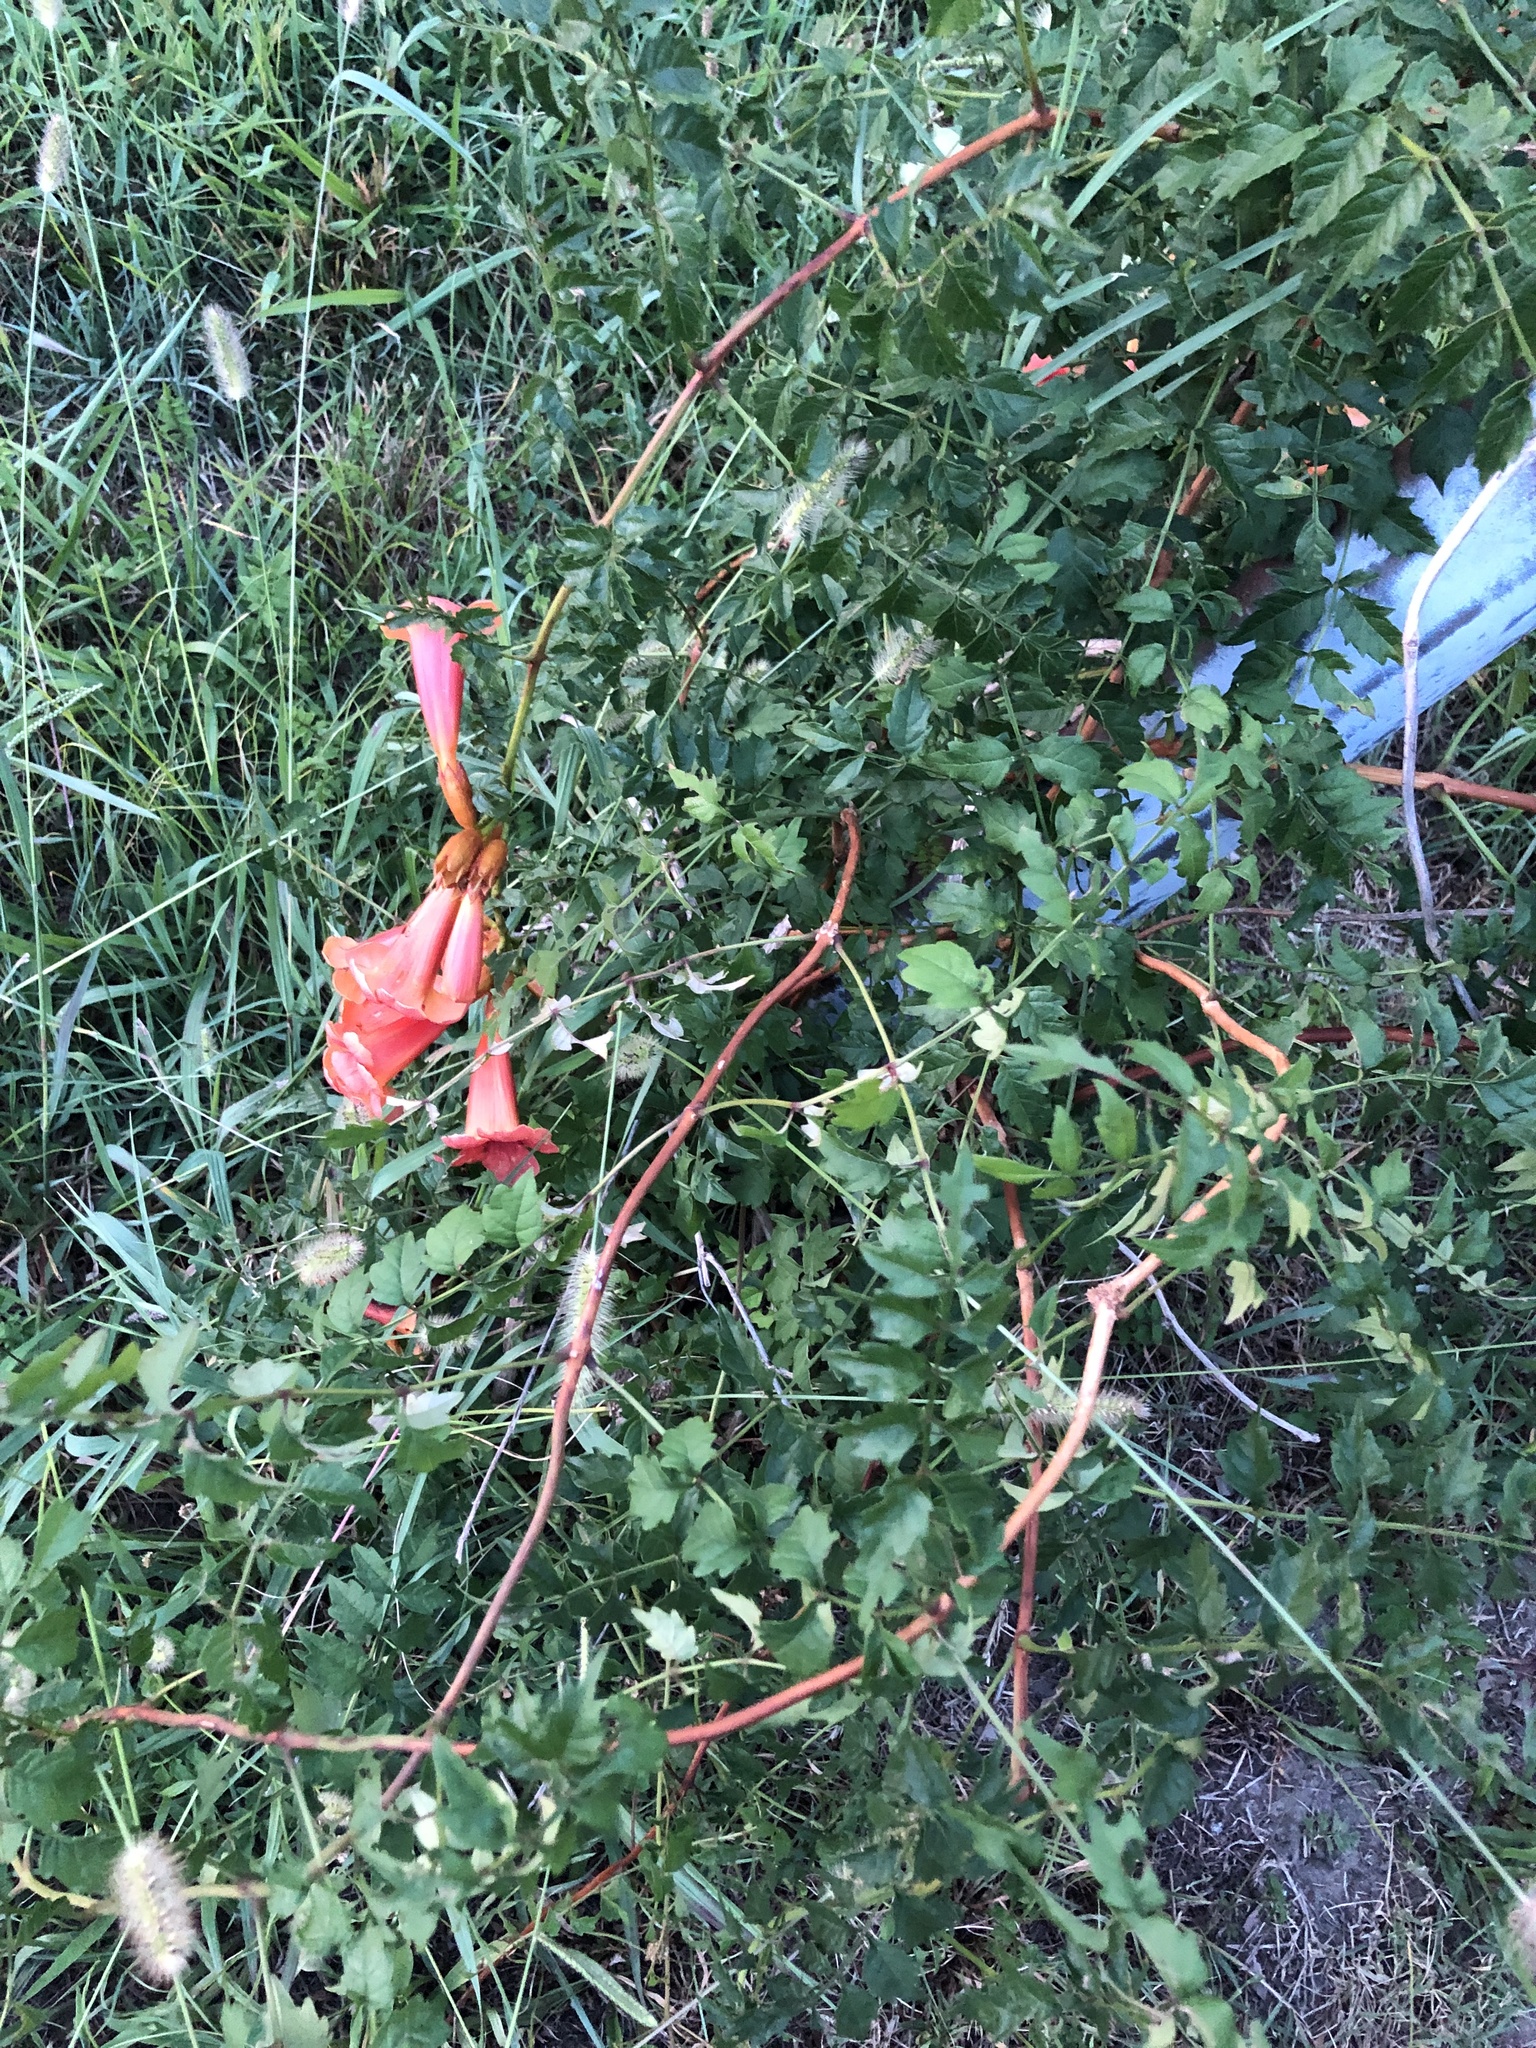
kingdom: Plantae
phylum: Tracheophyta
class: Magnoliopsida
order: Lamiales
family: Bignoniaceae
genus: Campsis
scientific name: Campsis radicans
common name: Trumpet-creeper
